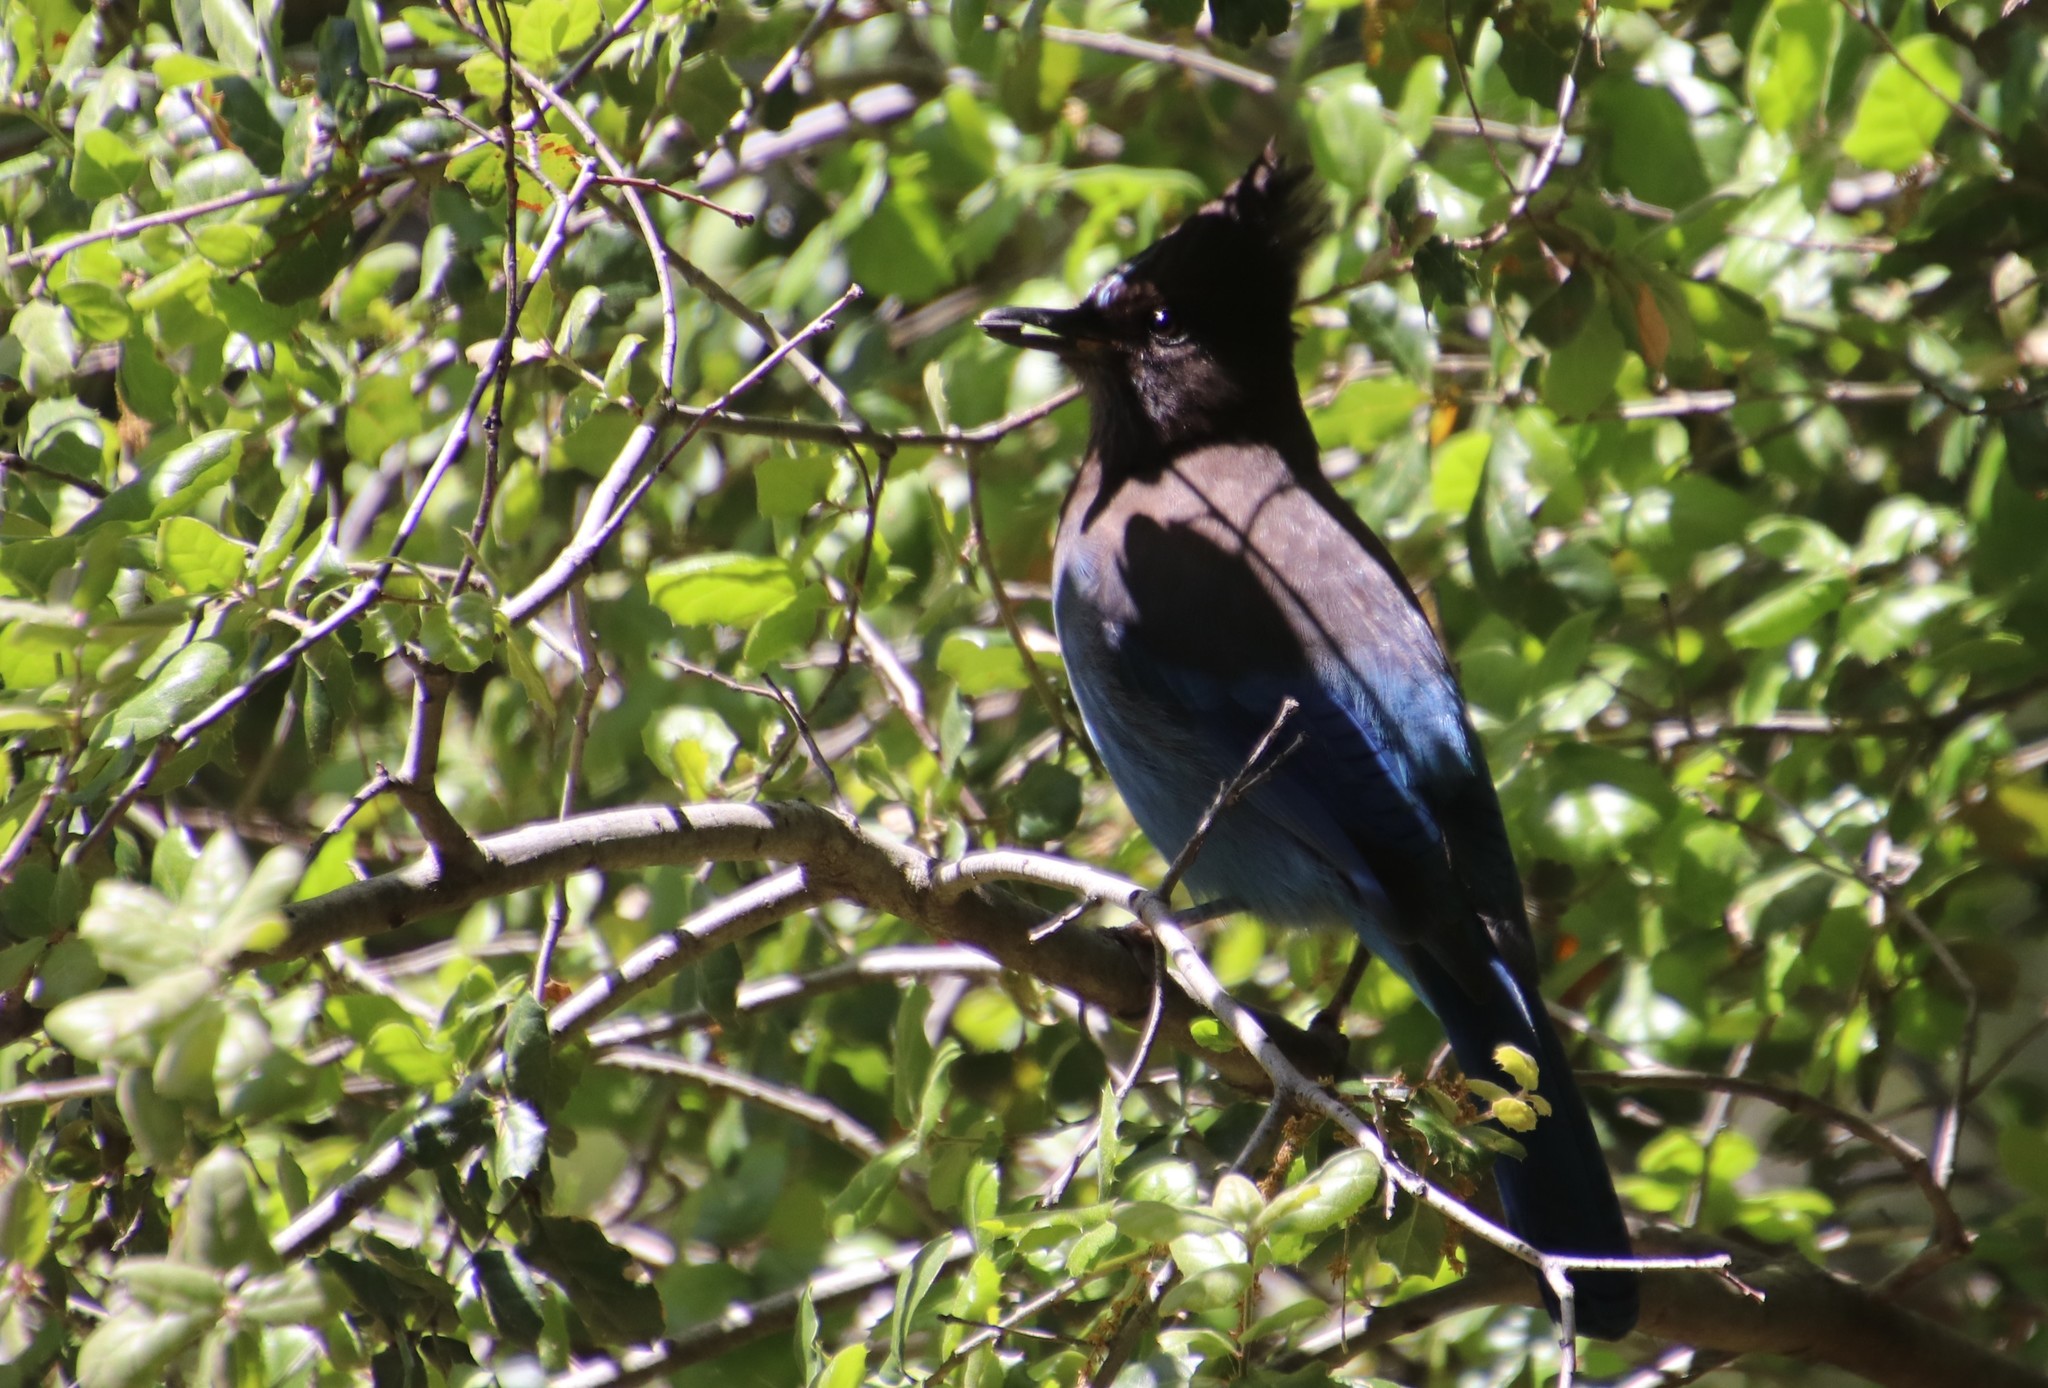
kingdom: Animalia
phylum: Chordata
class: Aves
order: Passeriformes
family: Corvidae
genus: Cyanocitta
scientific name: Cyanocitta stelleri
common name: Steller's jay
